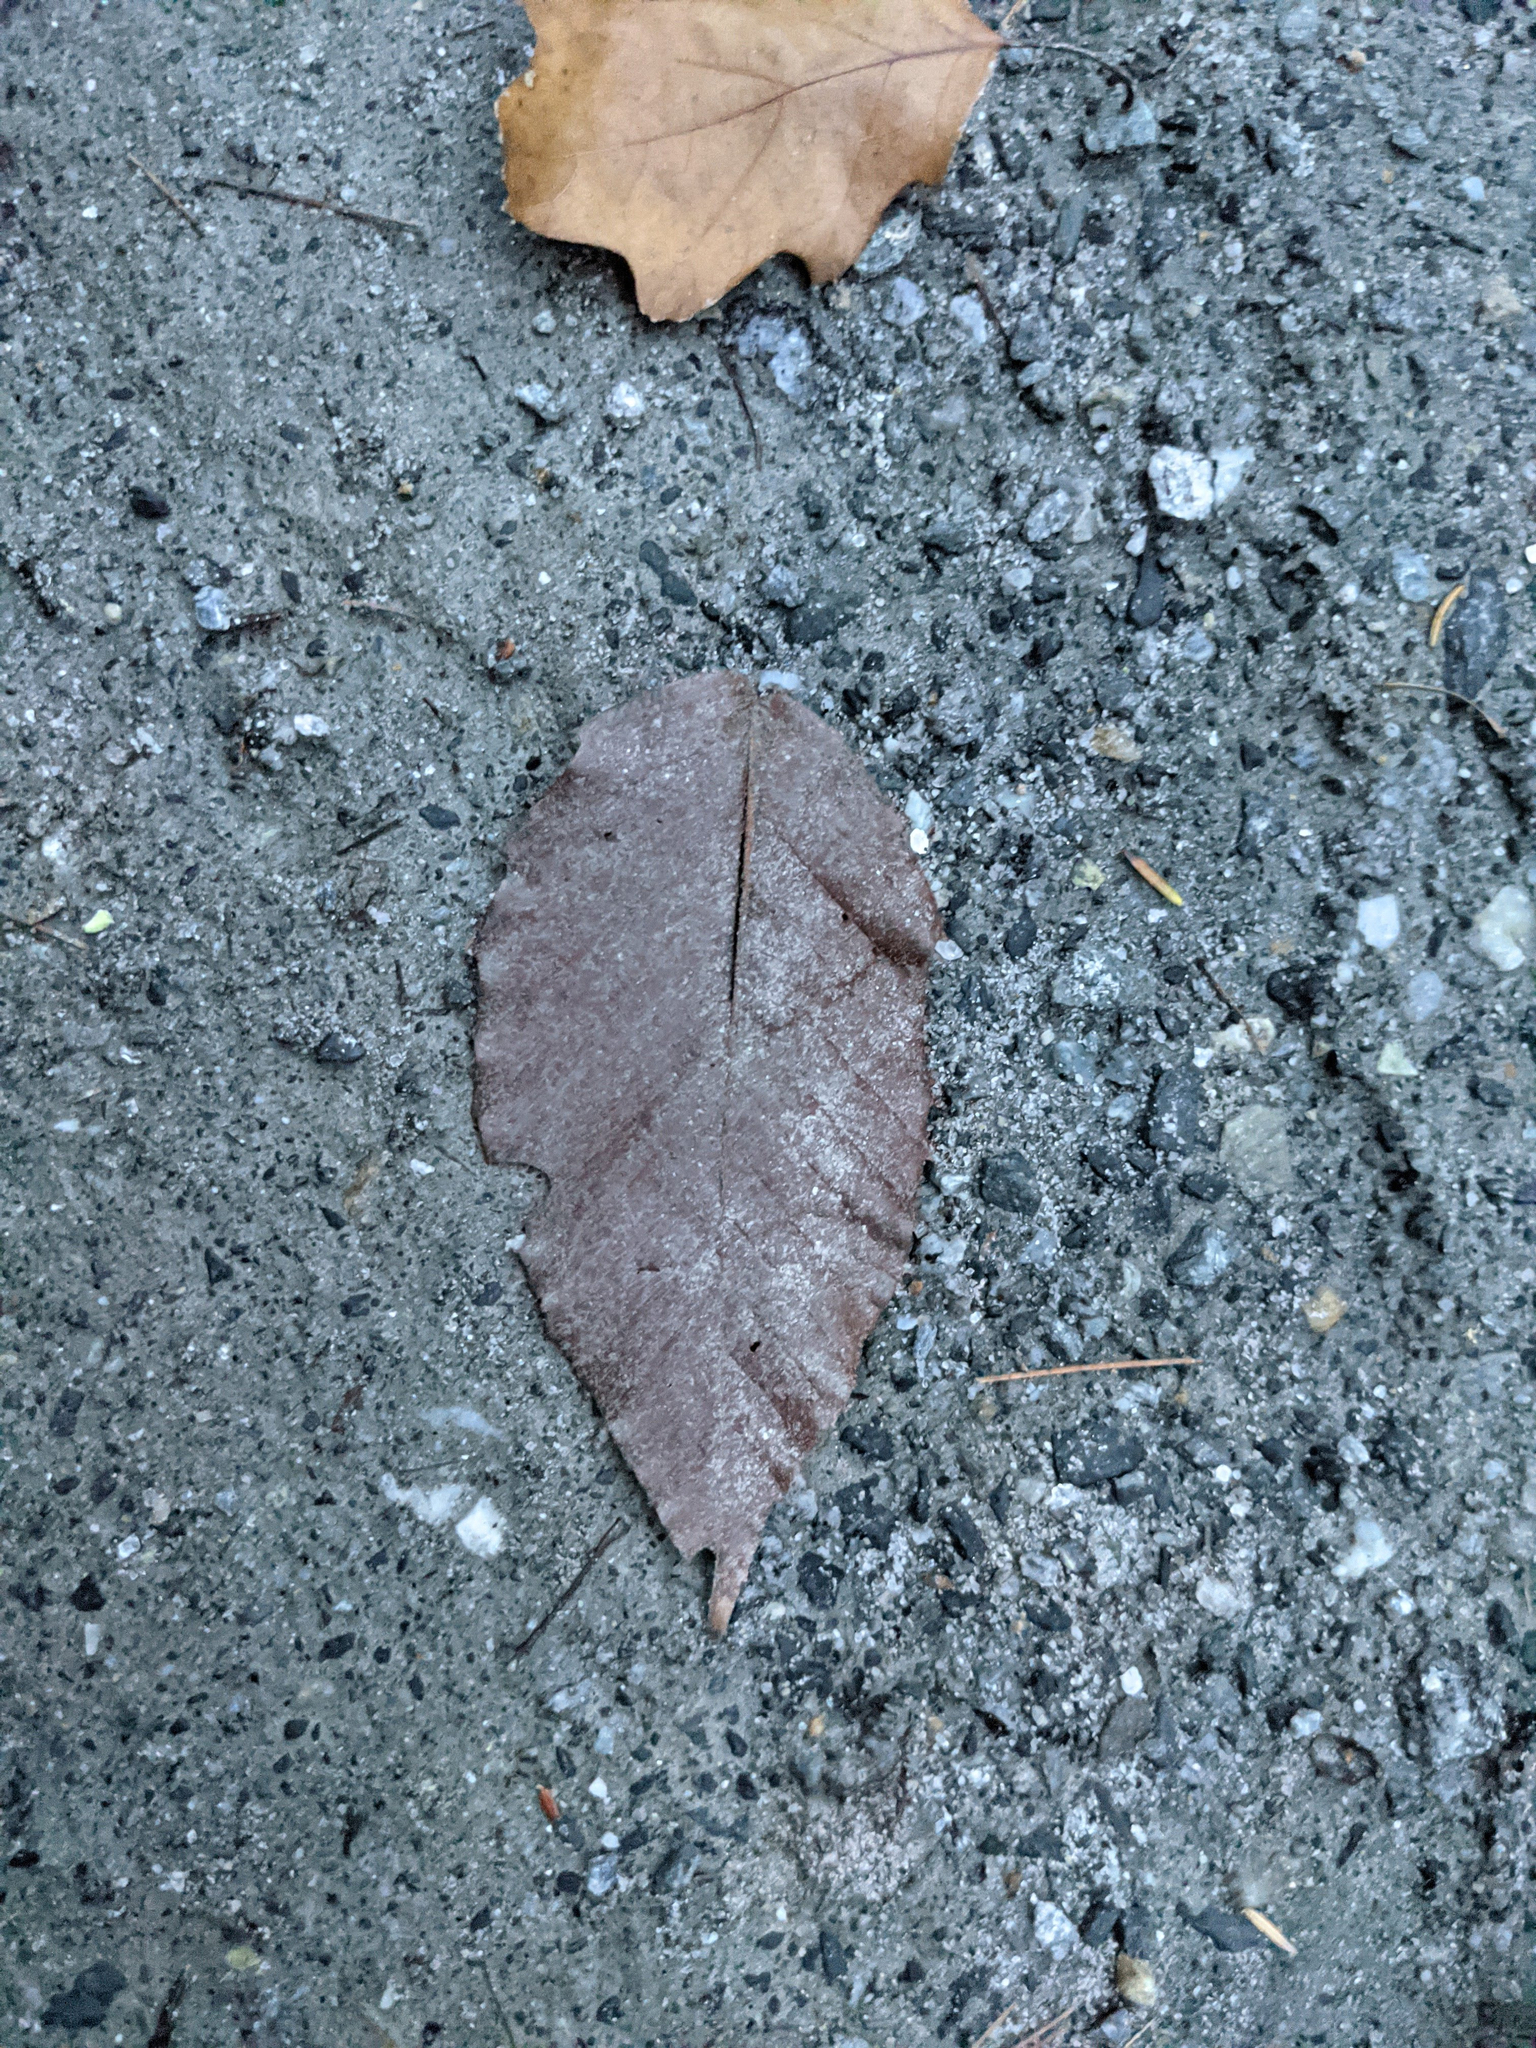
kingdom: Plantae
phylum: Tracheophyta
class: Magnoliopsida
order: Fagales
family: Fagaceae
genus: Fagus
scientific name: Fagus grandifolia
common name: American beech
